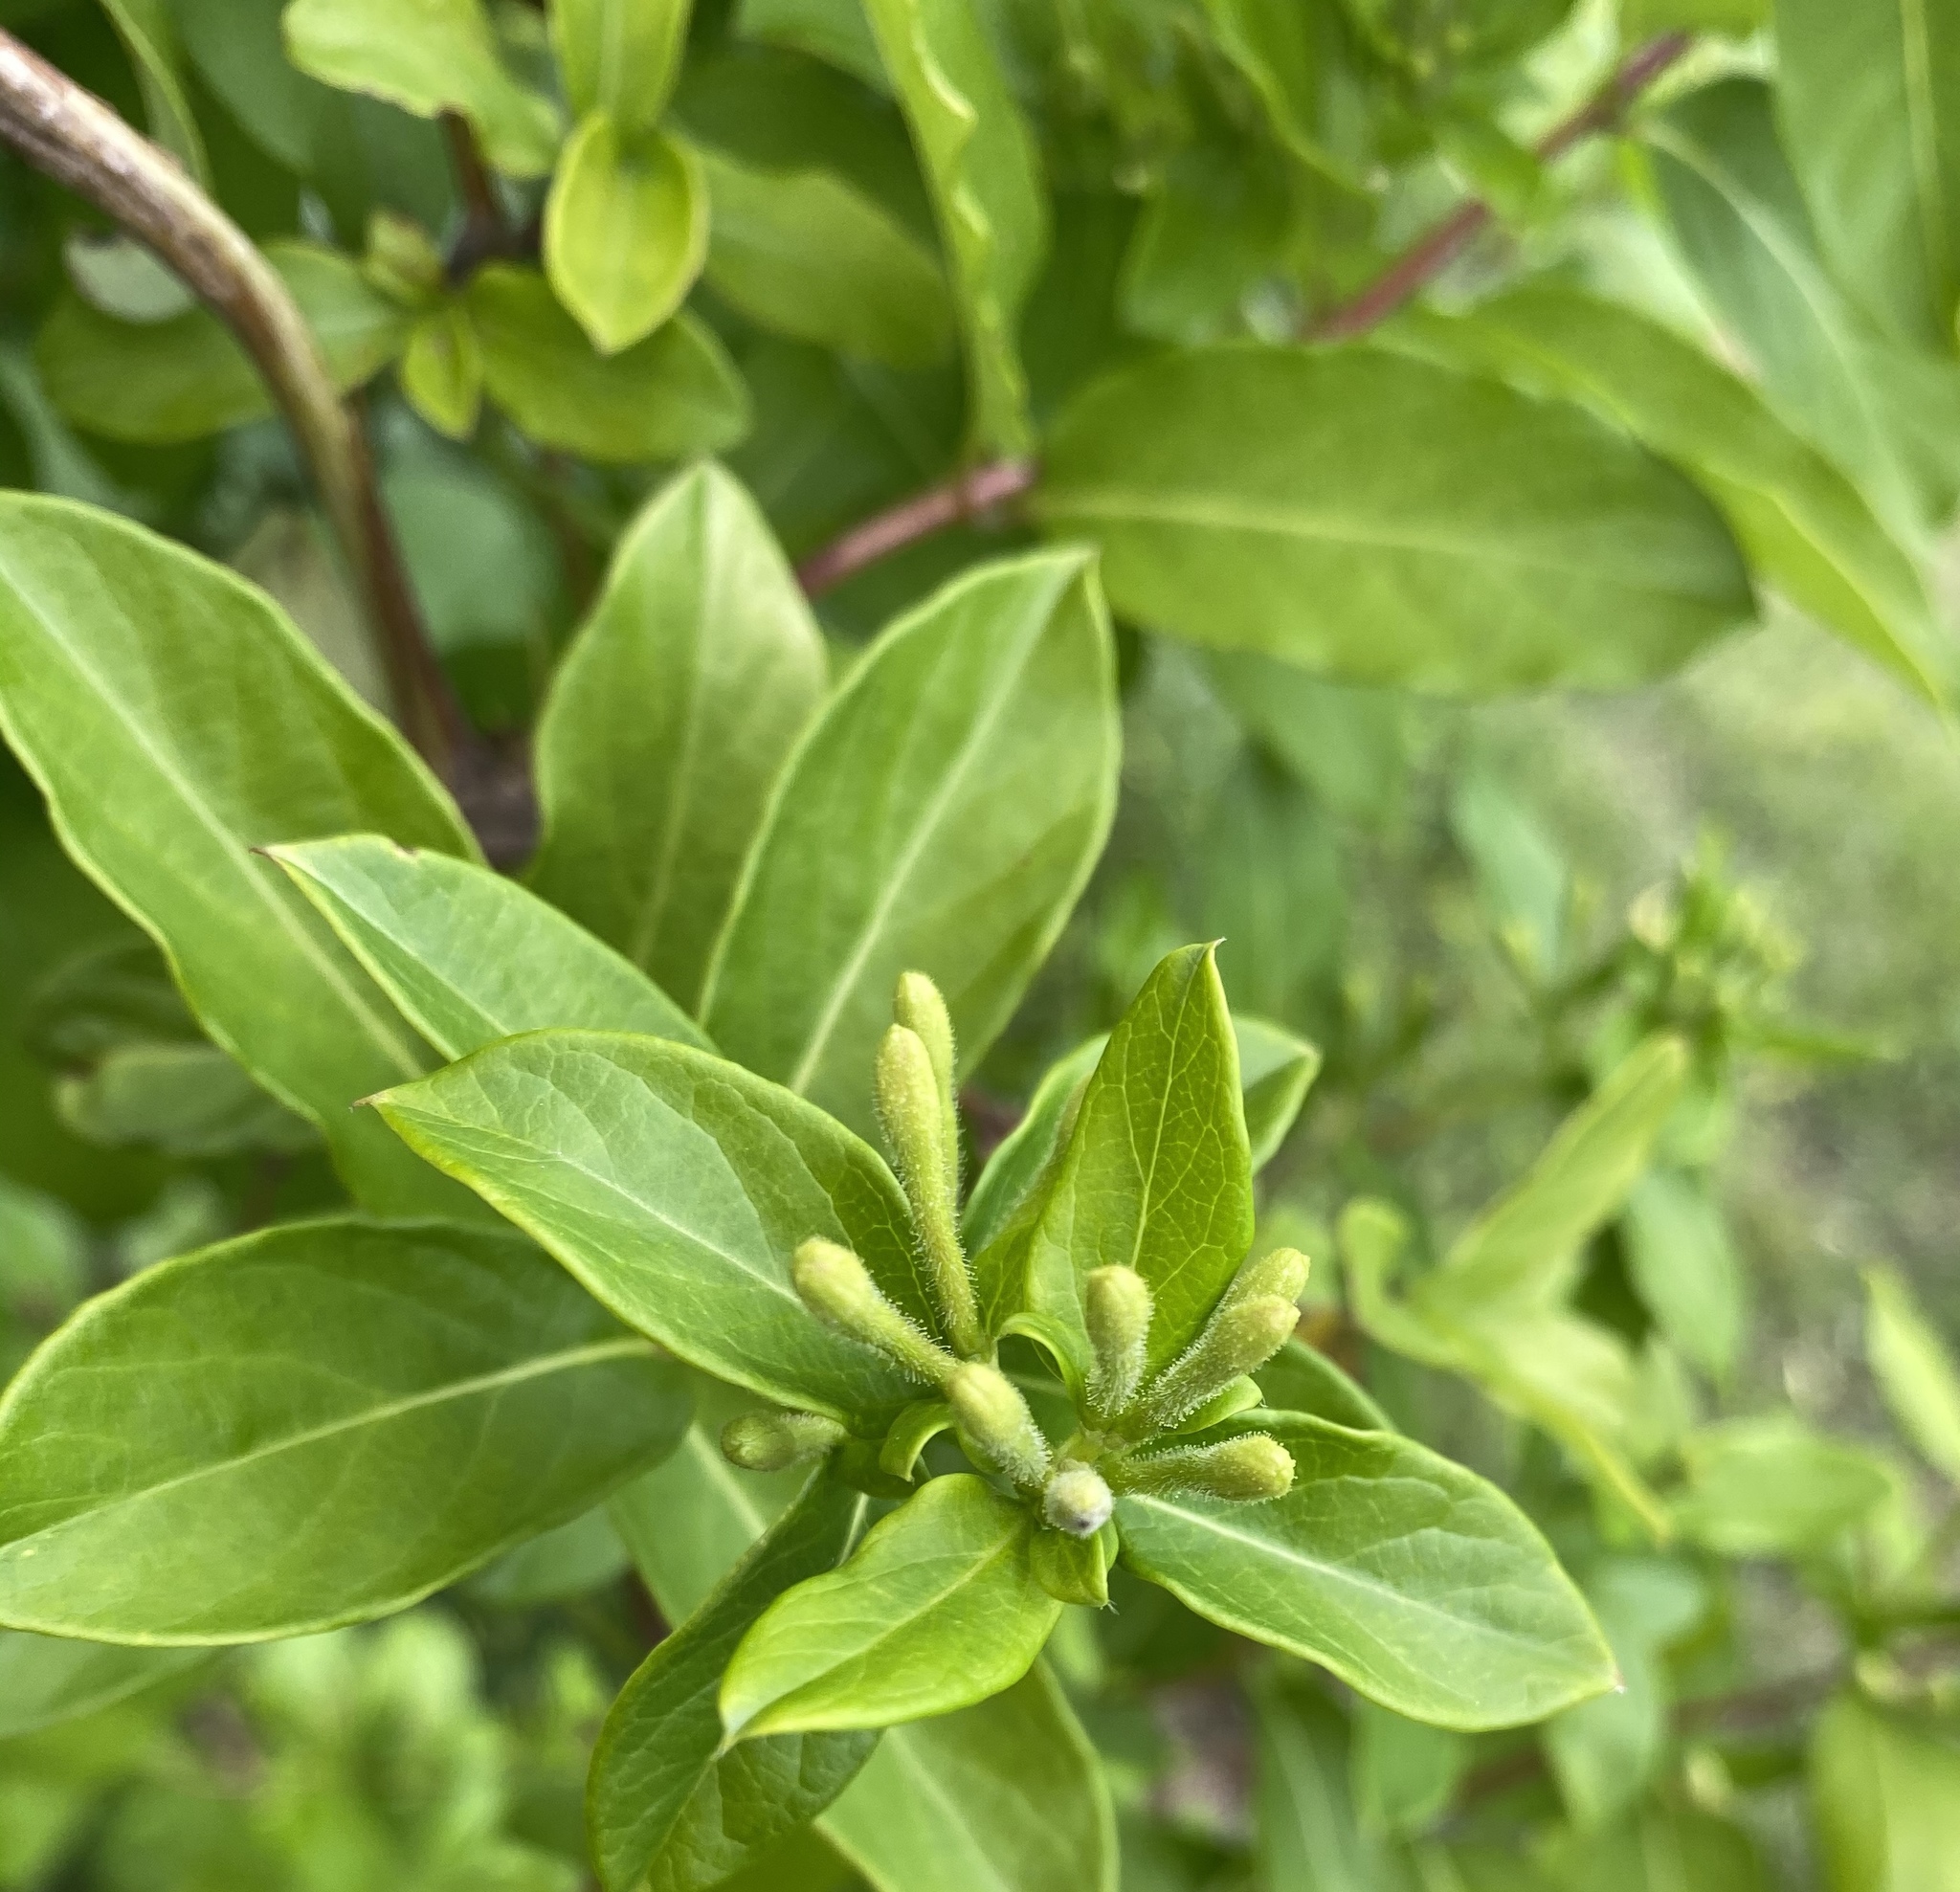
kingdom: Plantae
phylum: Tracheophyta
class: Magnoliopsida
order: Dipsacales
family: Caprifoliaceae
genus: Lonicera
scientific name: Lonicera japonica
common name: Japanese honeysuckle
